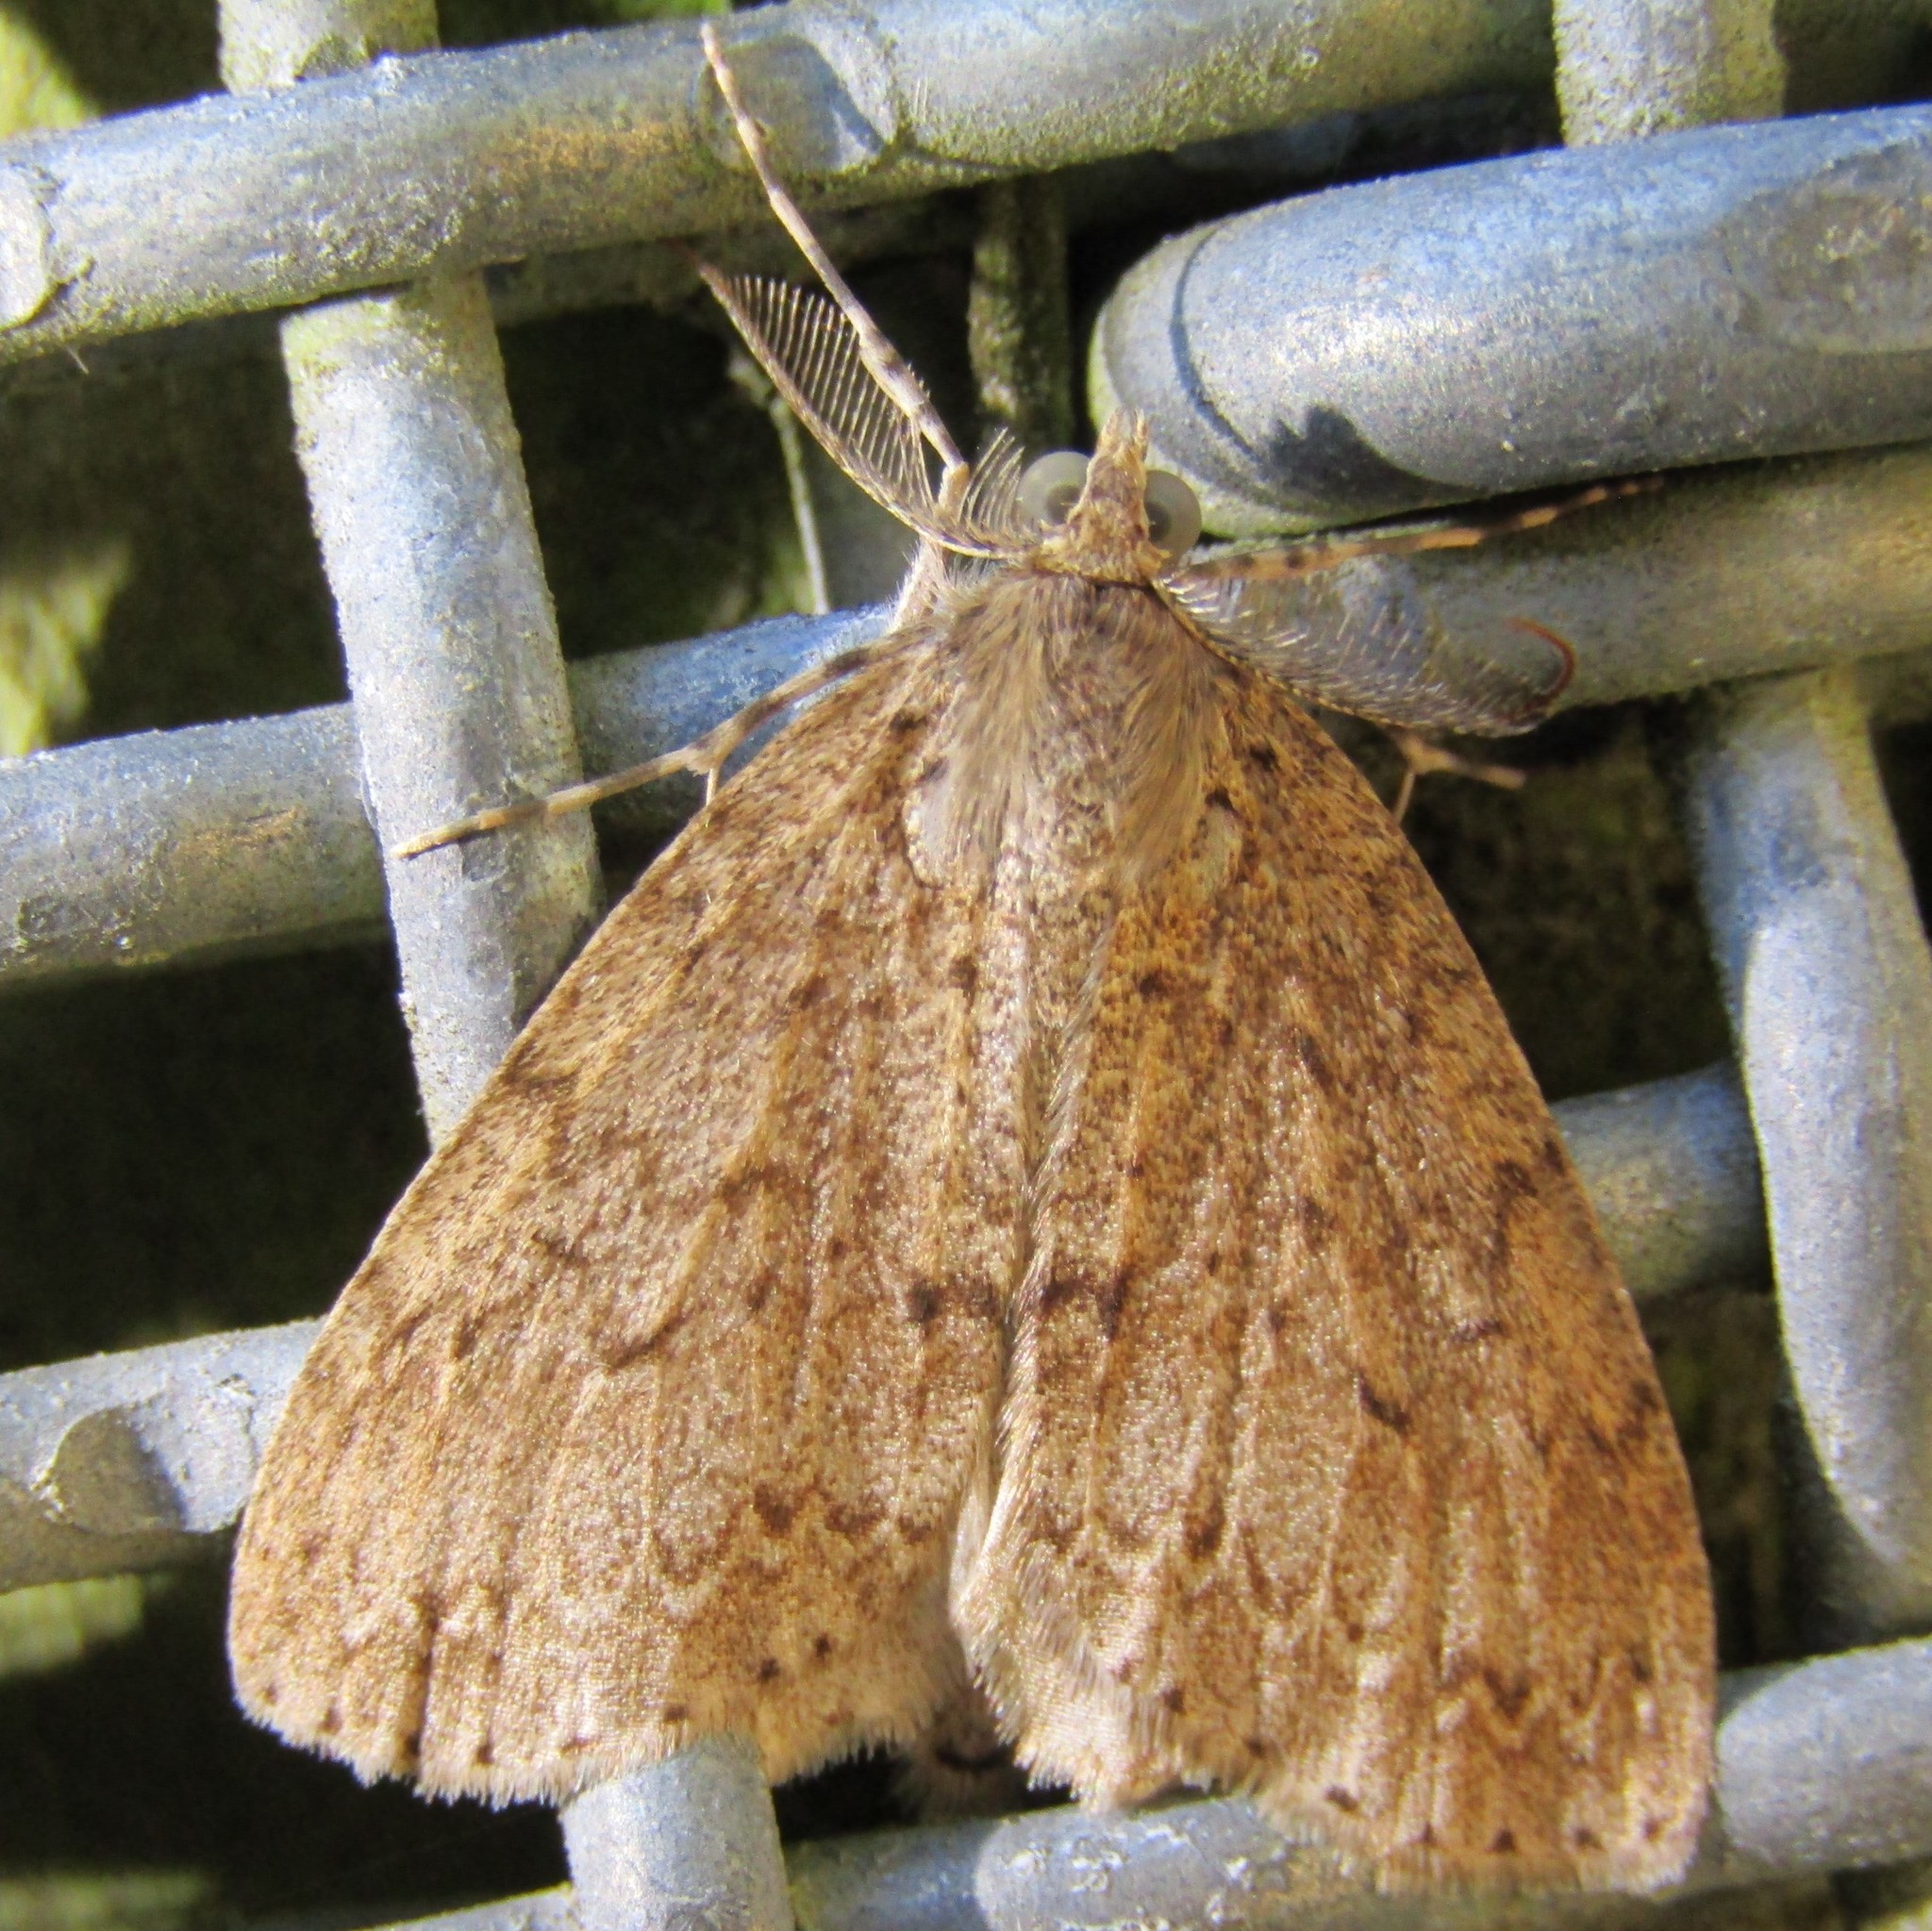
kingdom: Animalia
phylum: Arthropoda
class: Insecta
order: Lepidoptera
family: Geometridae
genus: Pseudocoremia
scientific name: Pseudocoremia fenerata
